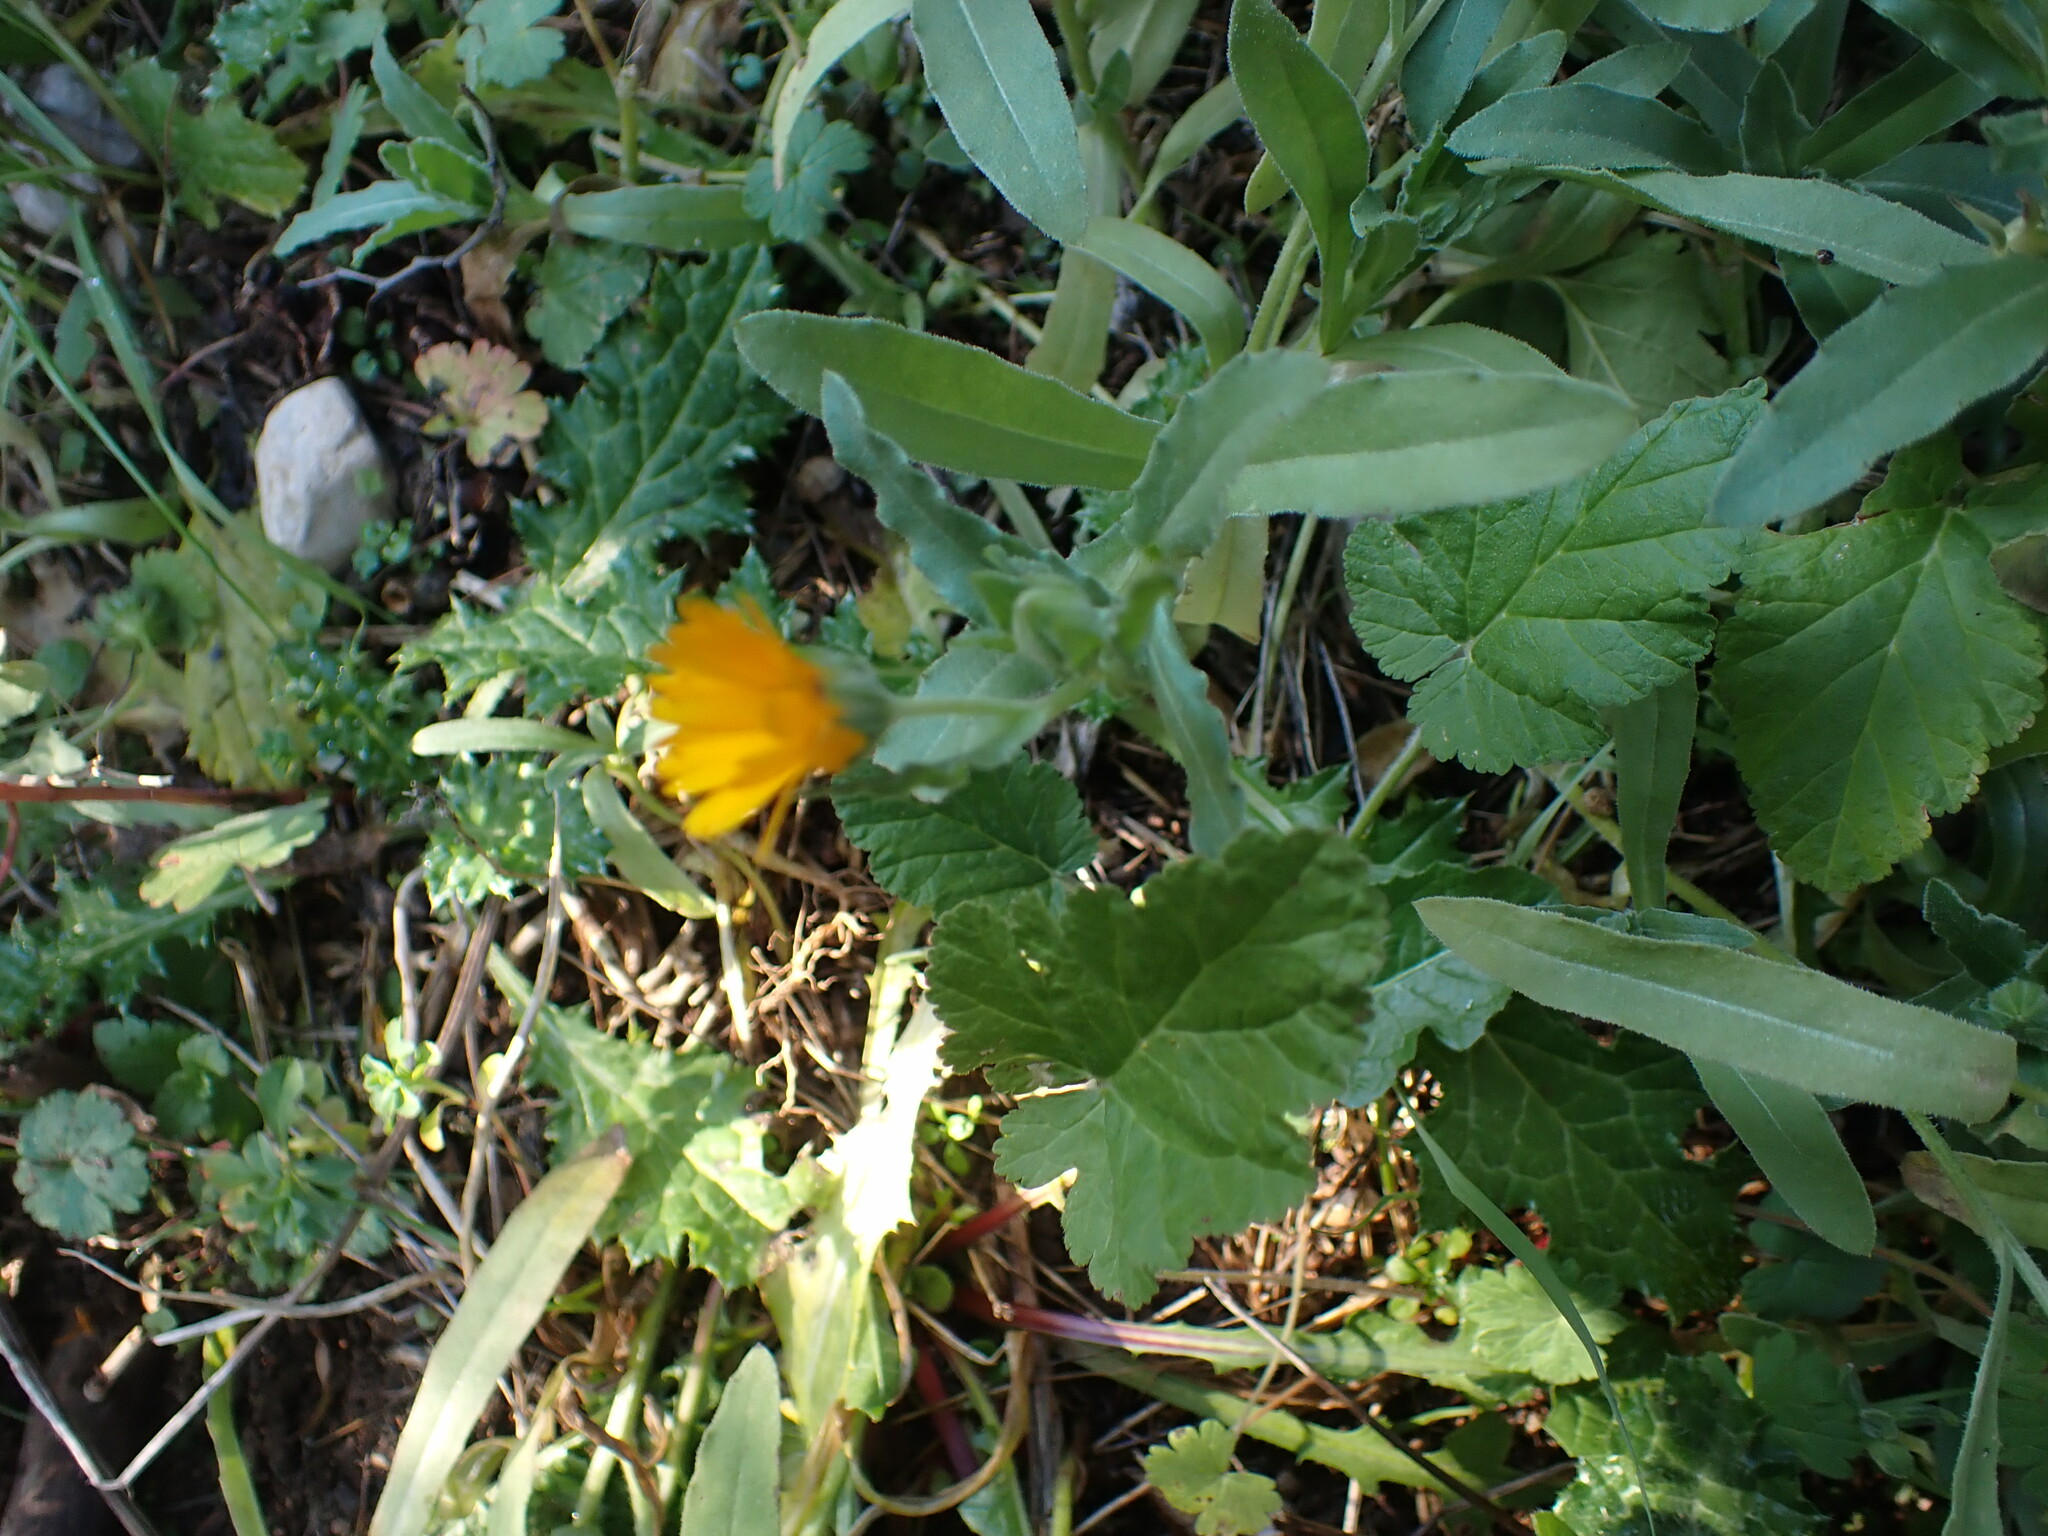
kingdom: Plantae
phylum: Tracheophyta
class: Magnoliopsida
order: Asterales
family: Asteraceae
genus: Calendula
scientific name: Calendula arvensis
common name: Field marigold
